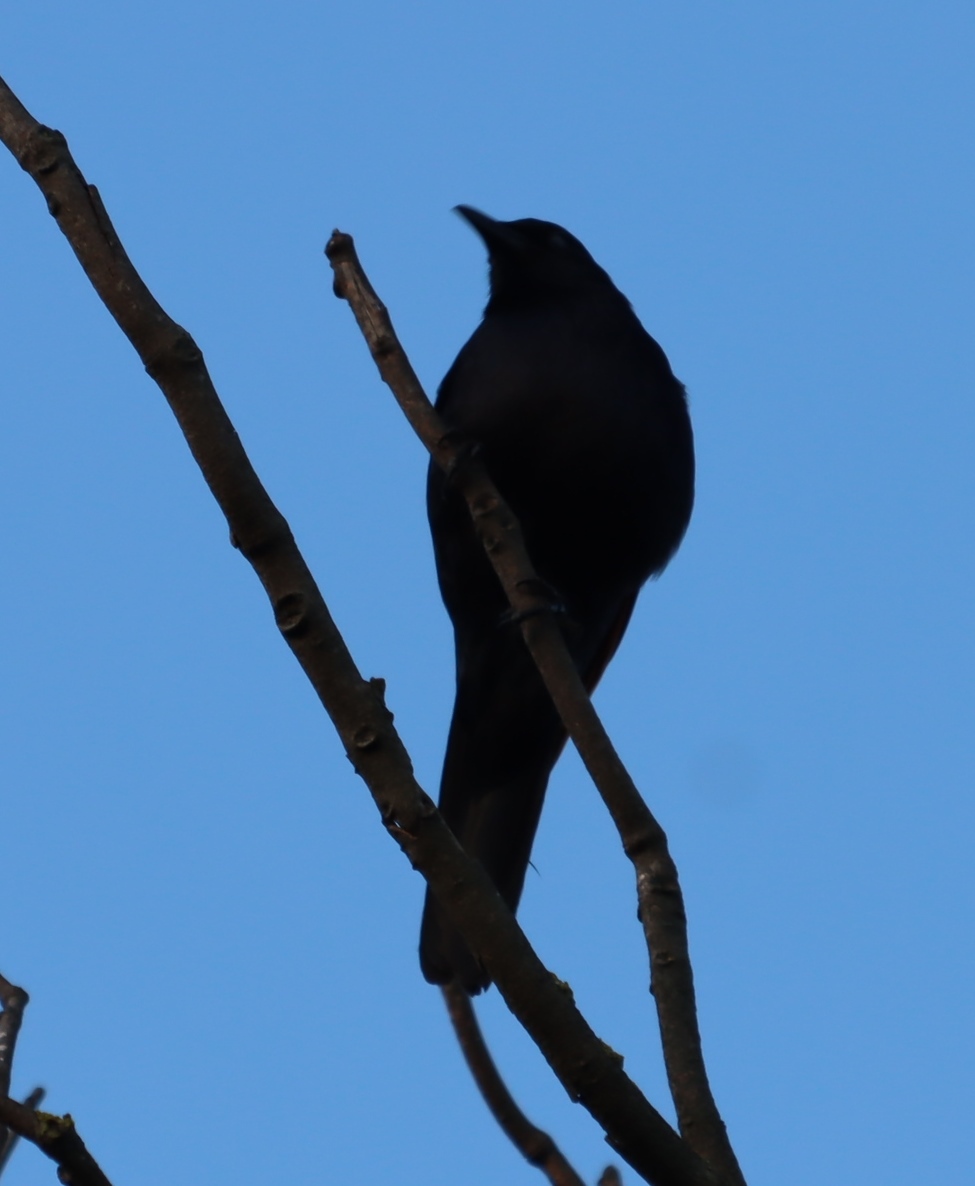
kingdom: Animalia
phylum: Chordata
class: Aves
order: Passeriformes
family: Sturnidae
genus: Onychognathus
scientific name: Onychognathus morio
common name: Red-winged starling
